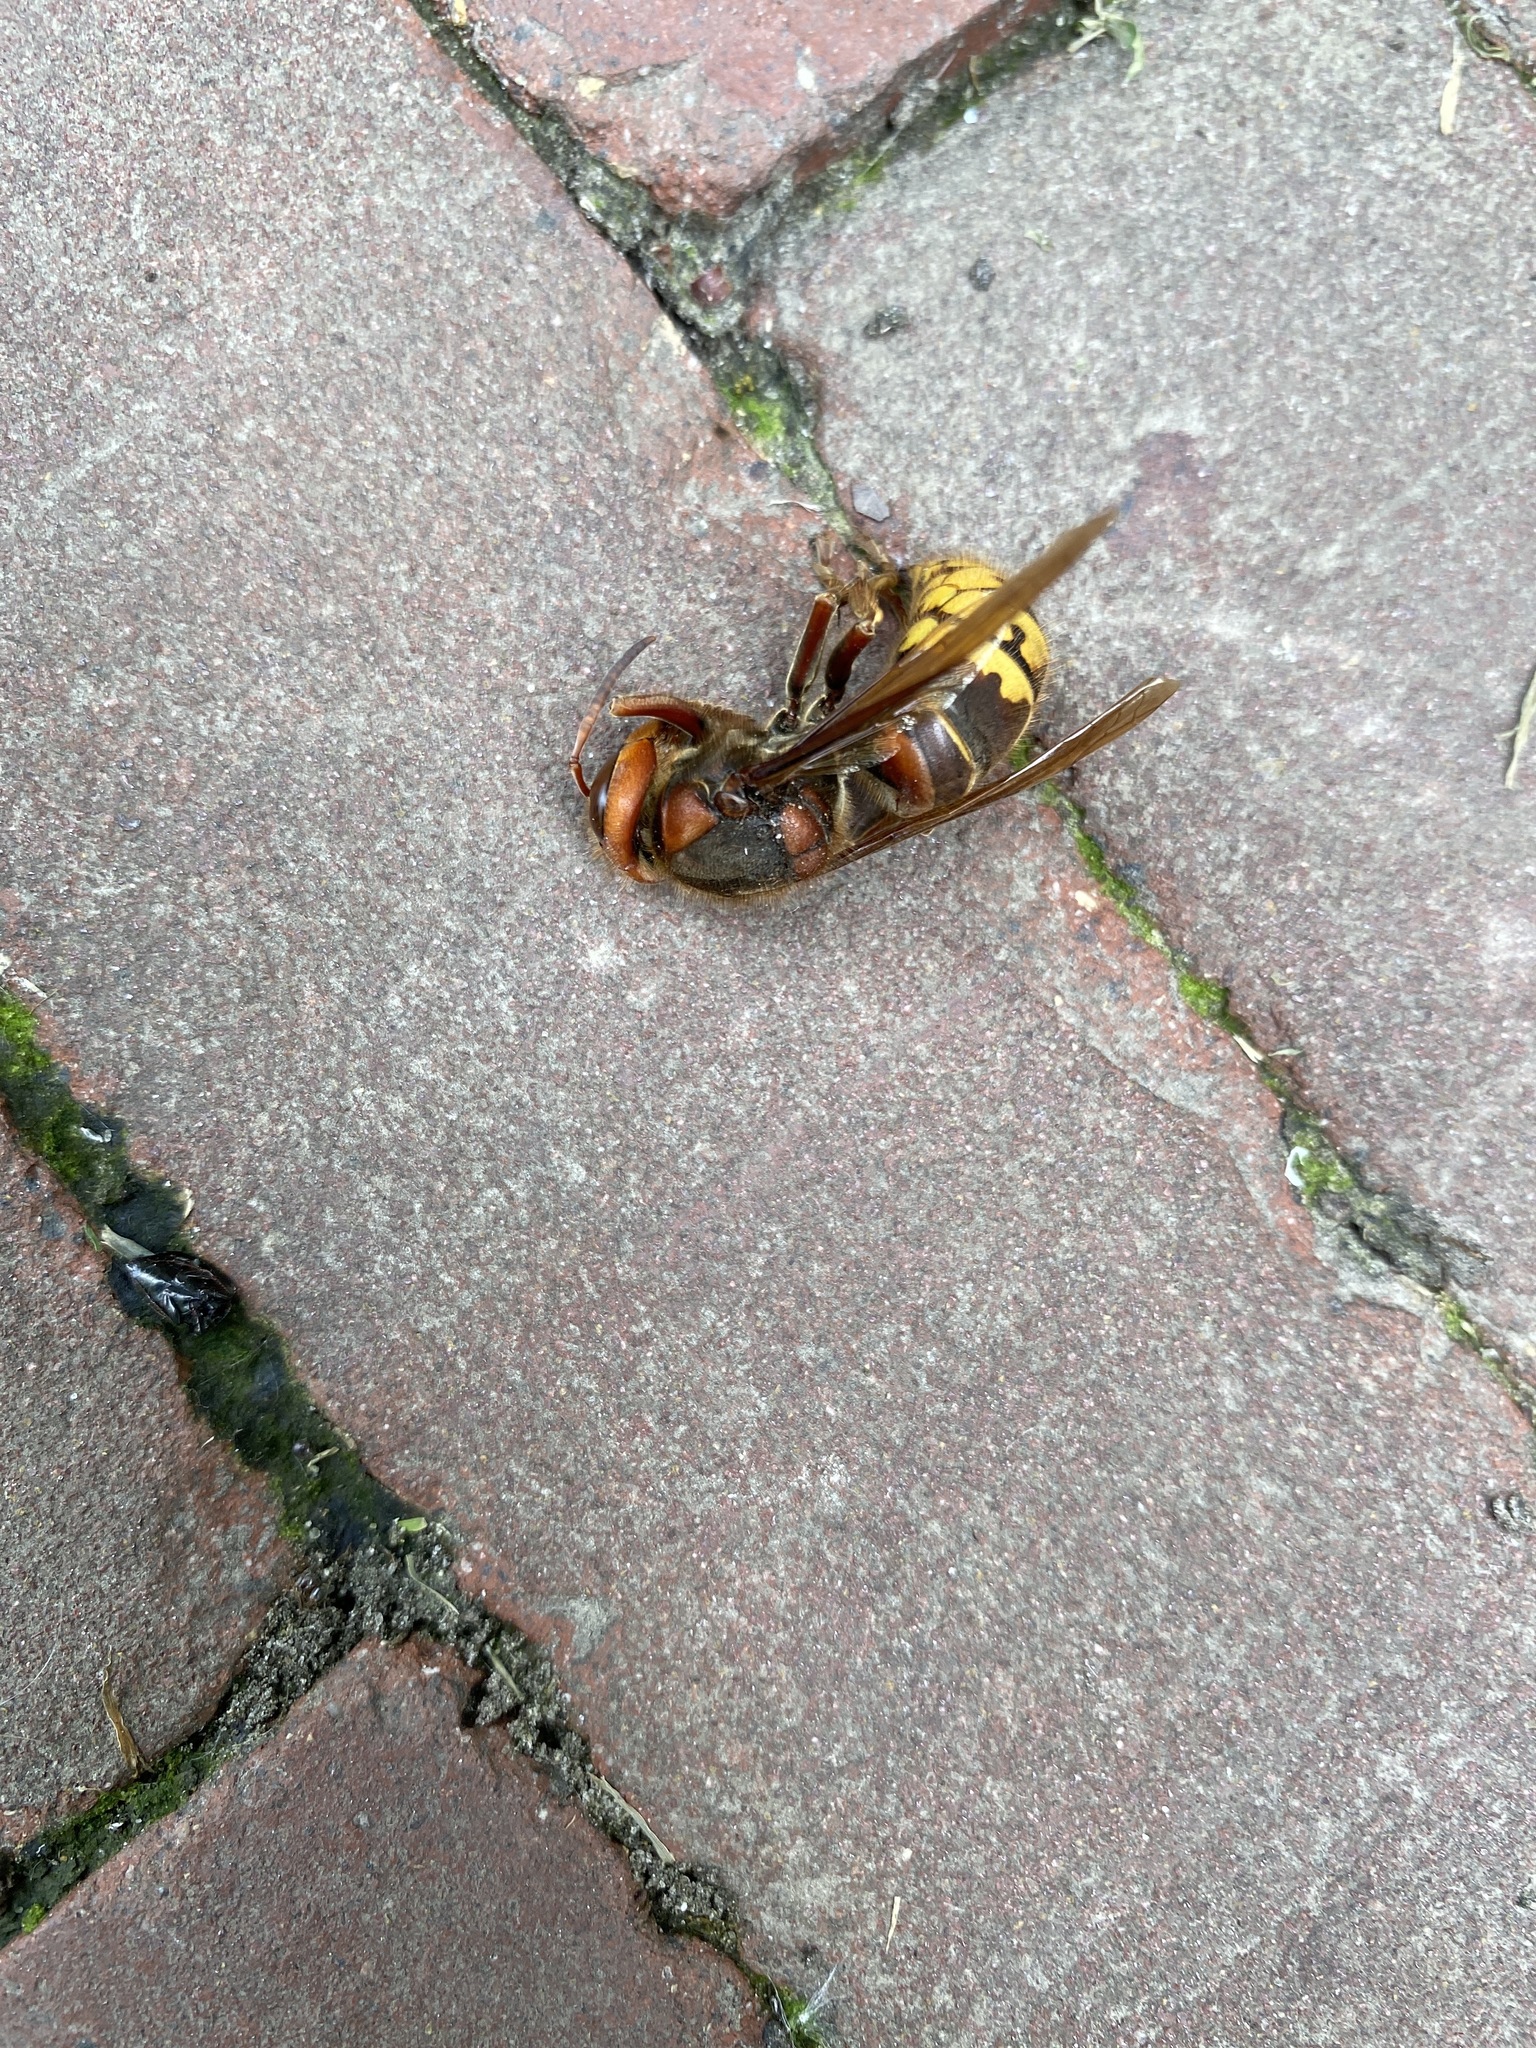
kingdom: Animalia
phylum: Arthropoda
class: Insecta
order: Hymenoptera
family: Vespidae
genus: Vespa
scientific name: Vespa crabro
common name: Hornet
